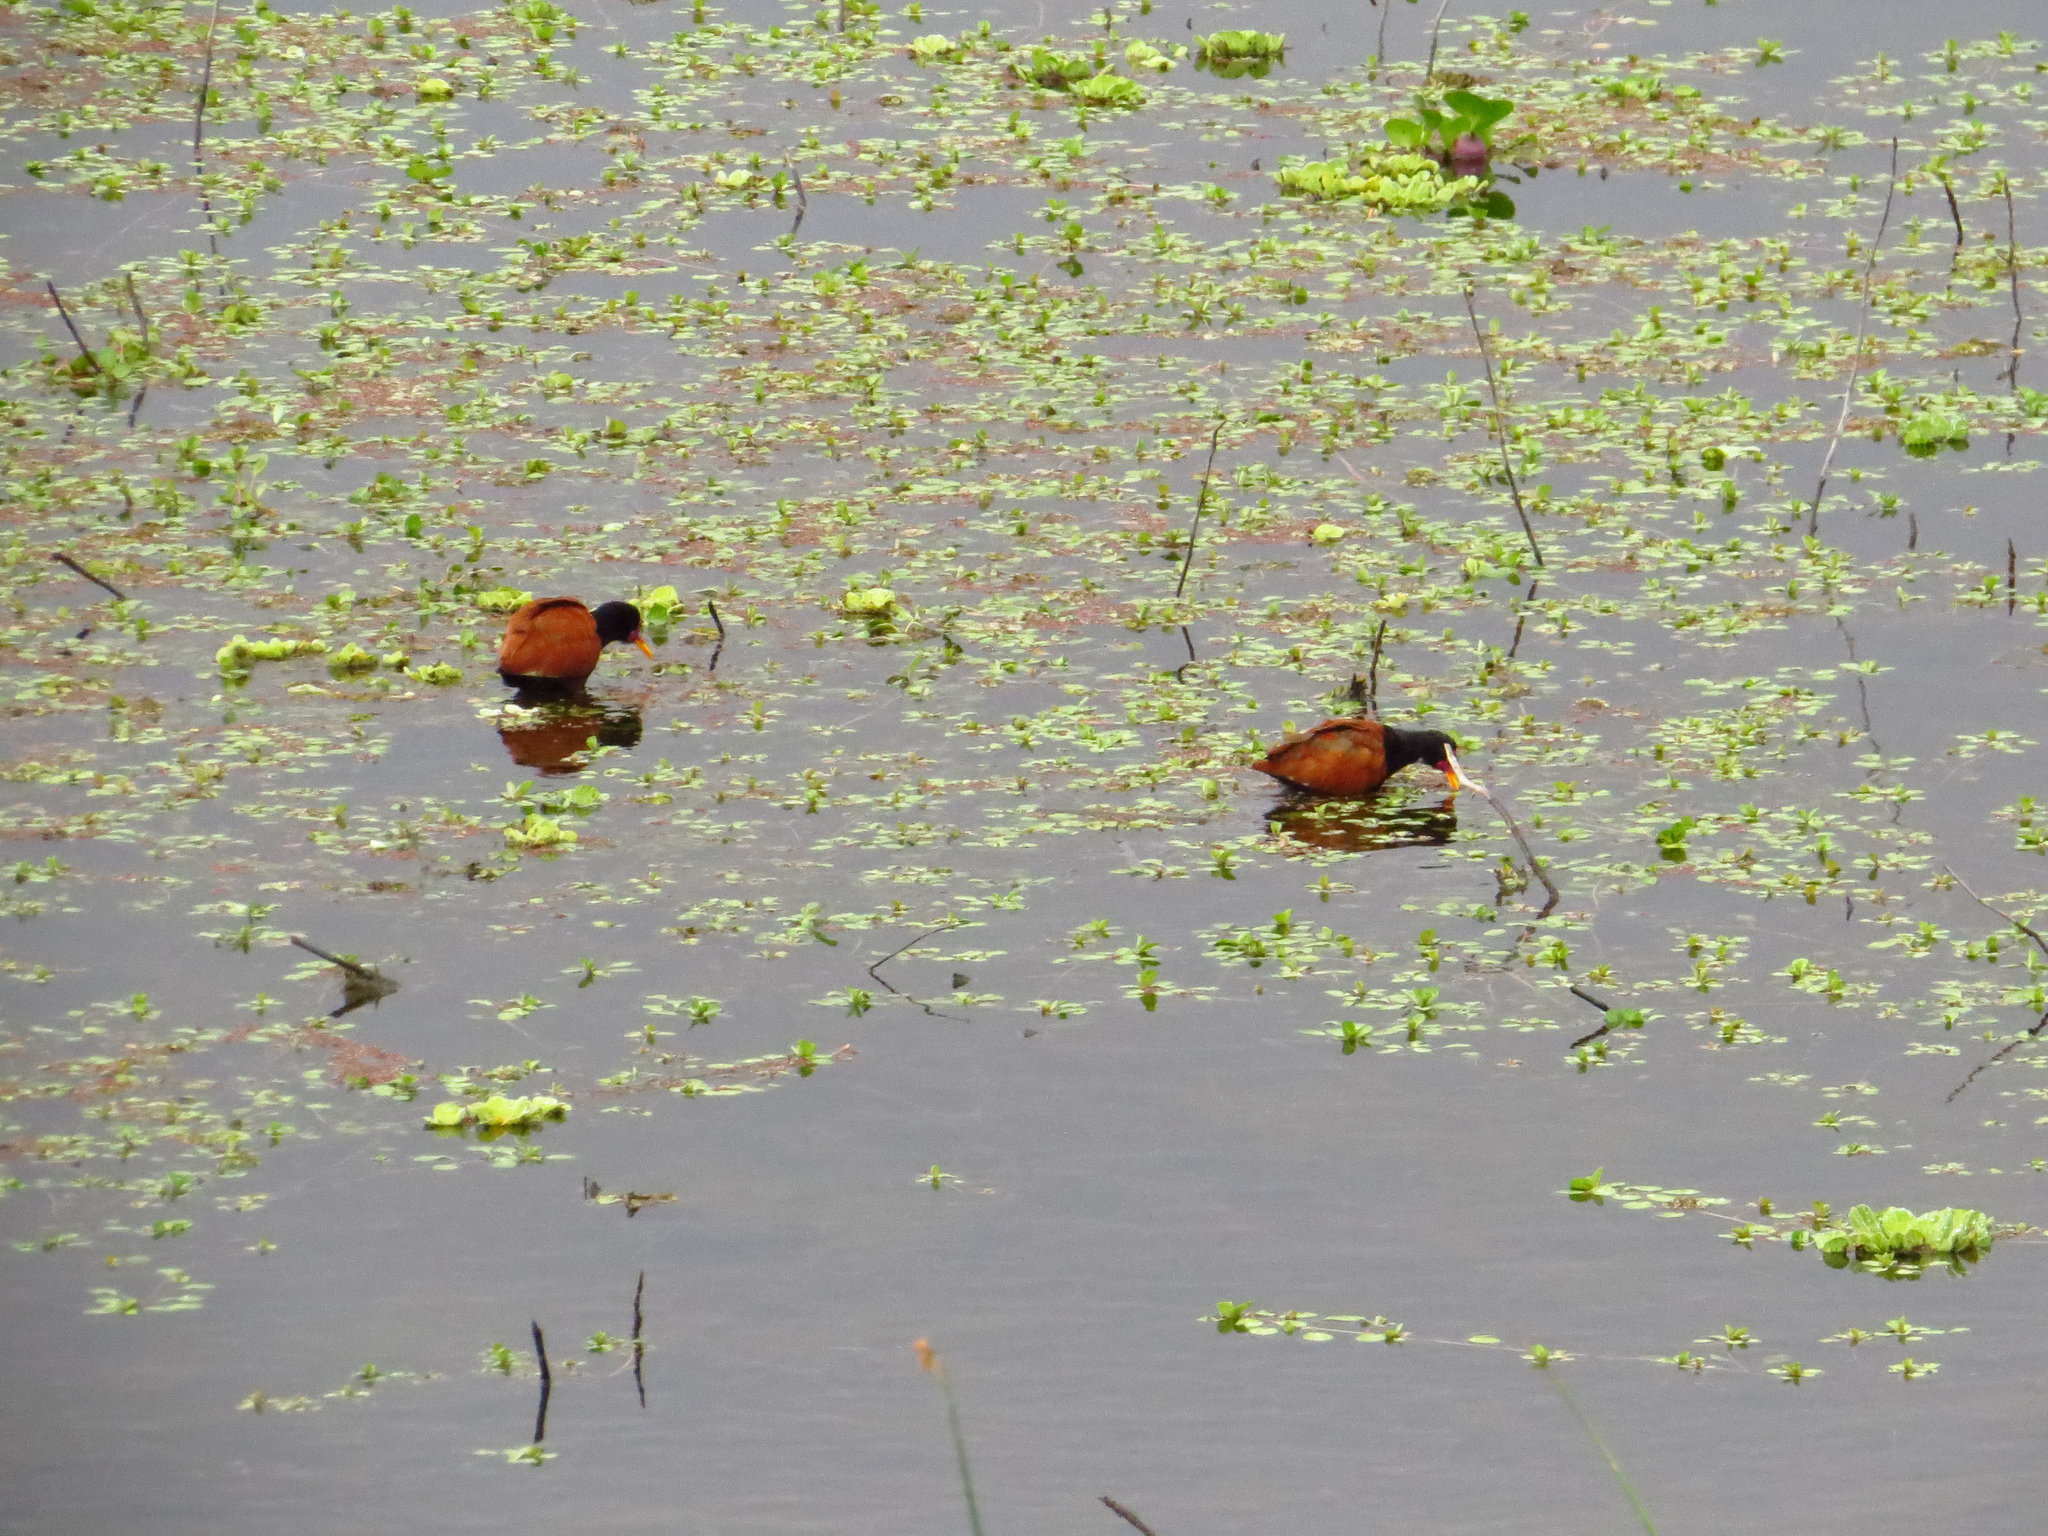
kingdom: Animalia
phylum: Chordata
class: Aves
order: Charadriiformes
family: Jacanidae
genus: Jacana
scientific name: Jacana jacana
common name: Wattled jacana
